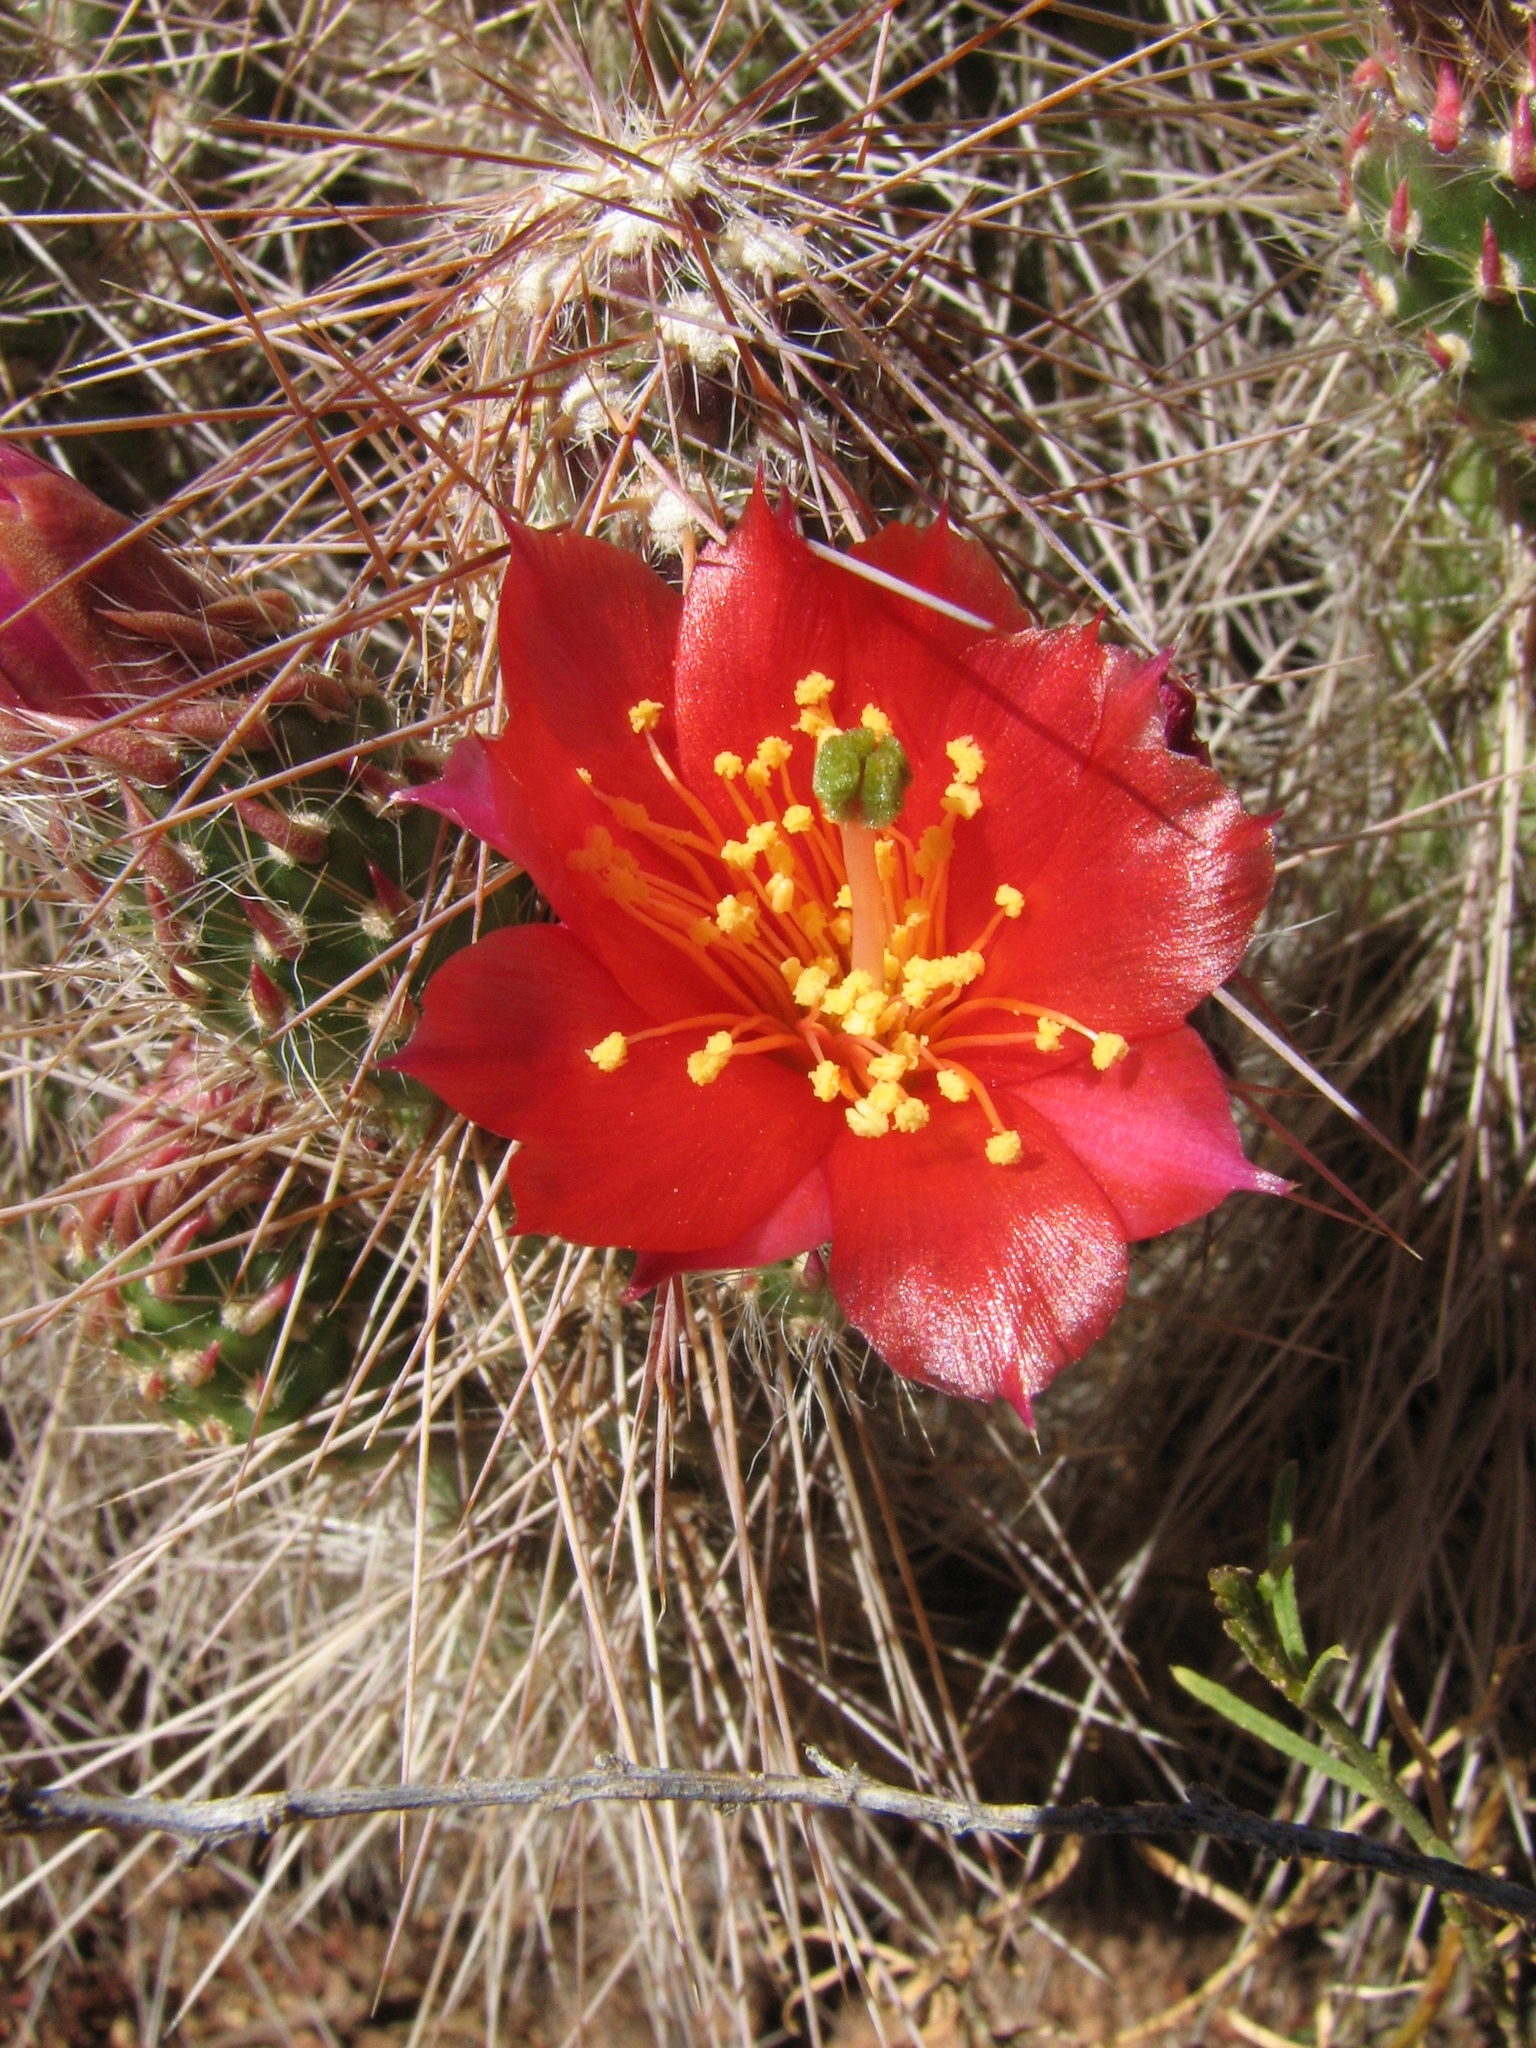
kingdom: Plantae
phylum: Tracheophyta
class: Magnoliopsida
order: Caryophyllales
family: Cactaceae
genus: Austrocylindropuntia
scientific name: Austrocylindropuntia shaferi
